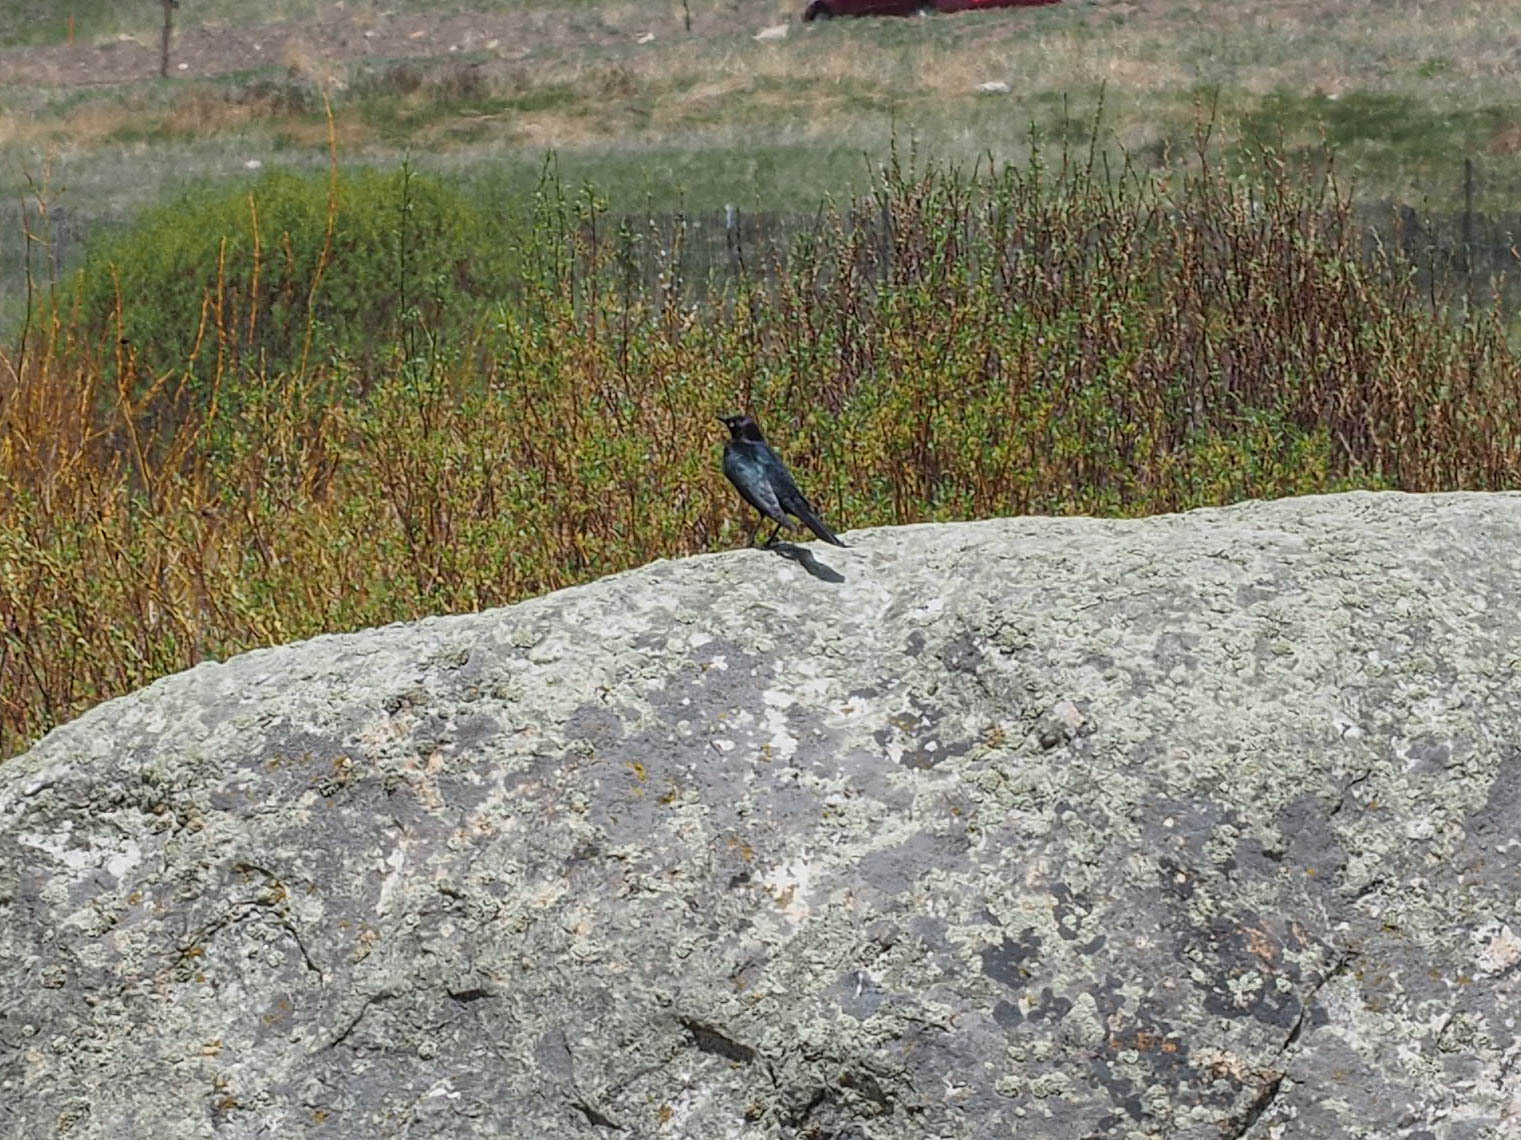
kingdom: Animalia
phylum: Chordata
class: Aves
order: Passeriformes
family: Icteridae
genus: Euphagus
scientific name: Euphagus cyanocephalus
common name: Brewer's blackbird
